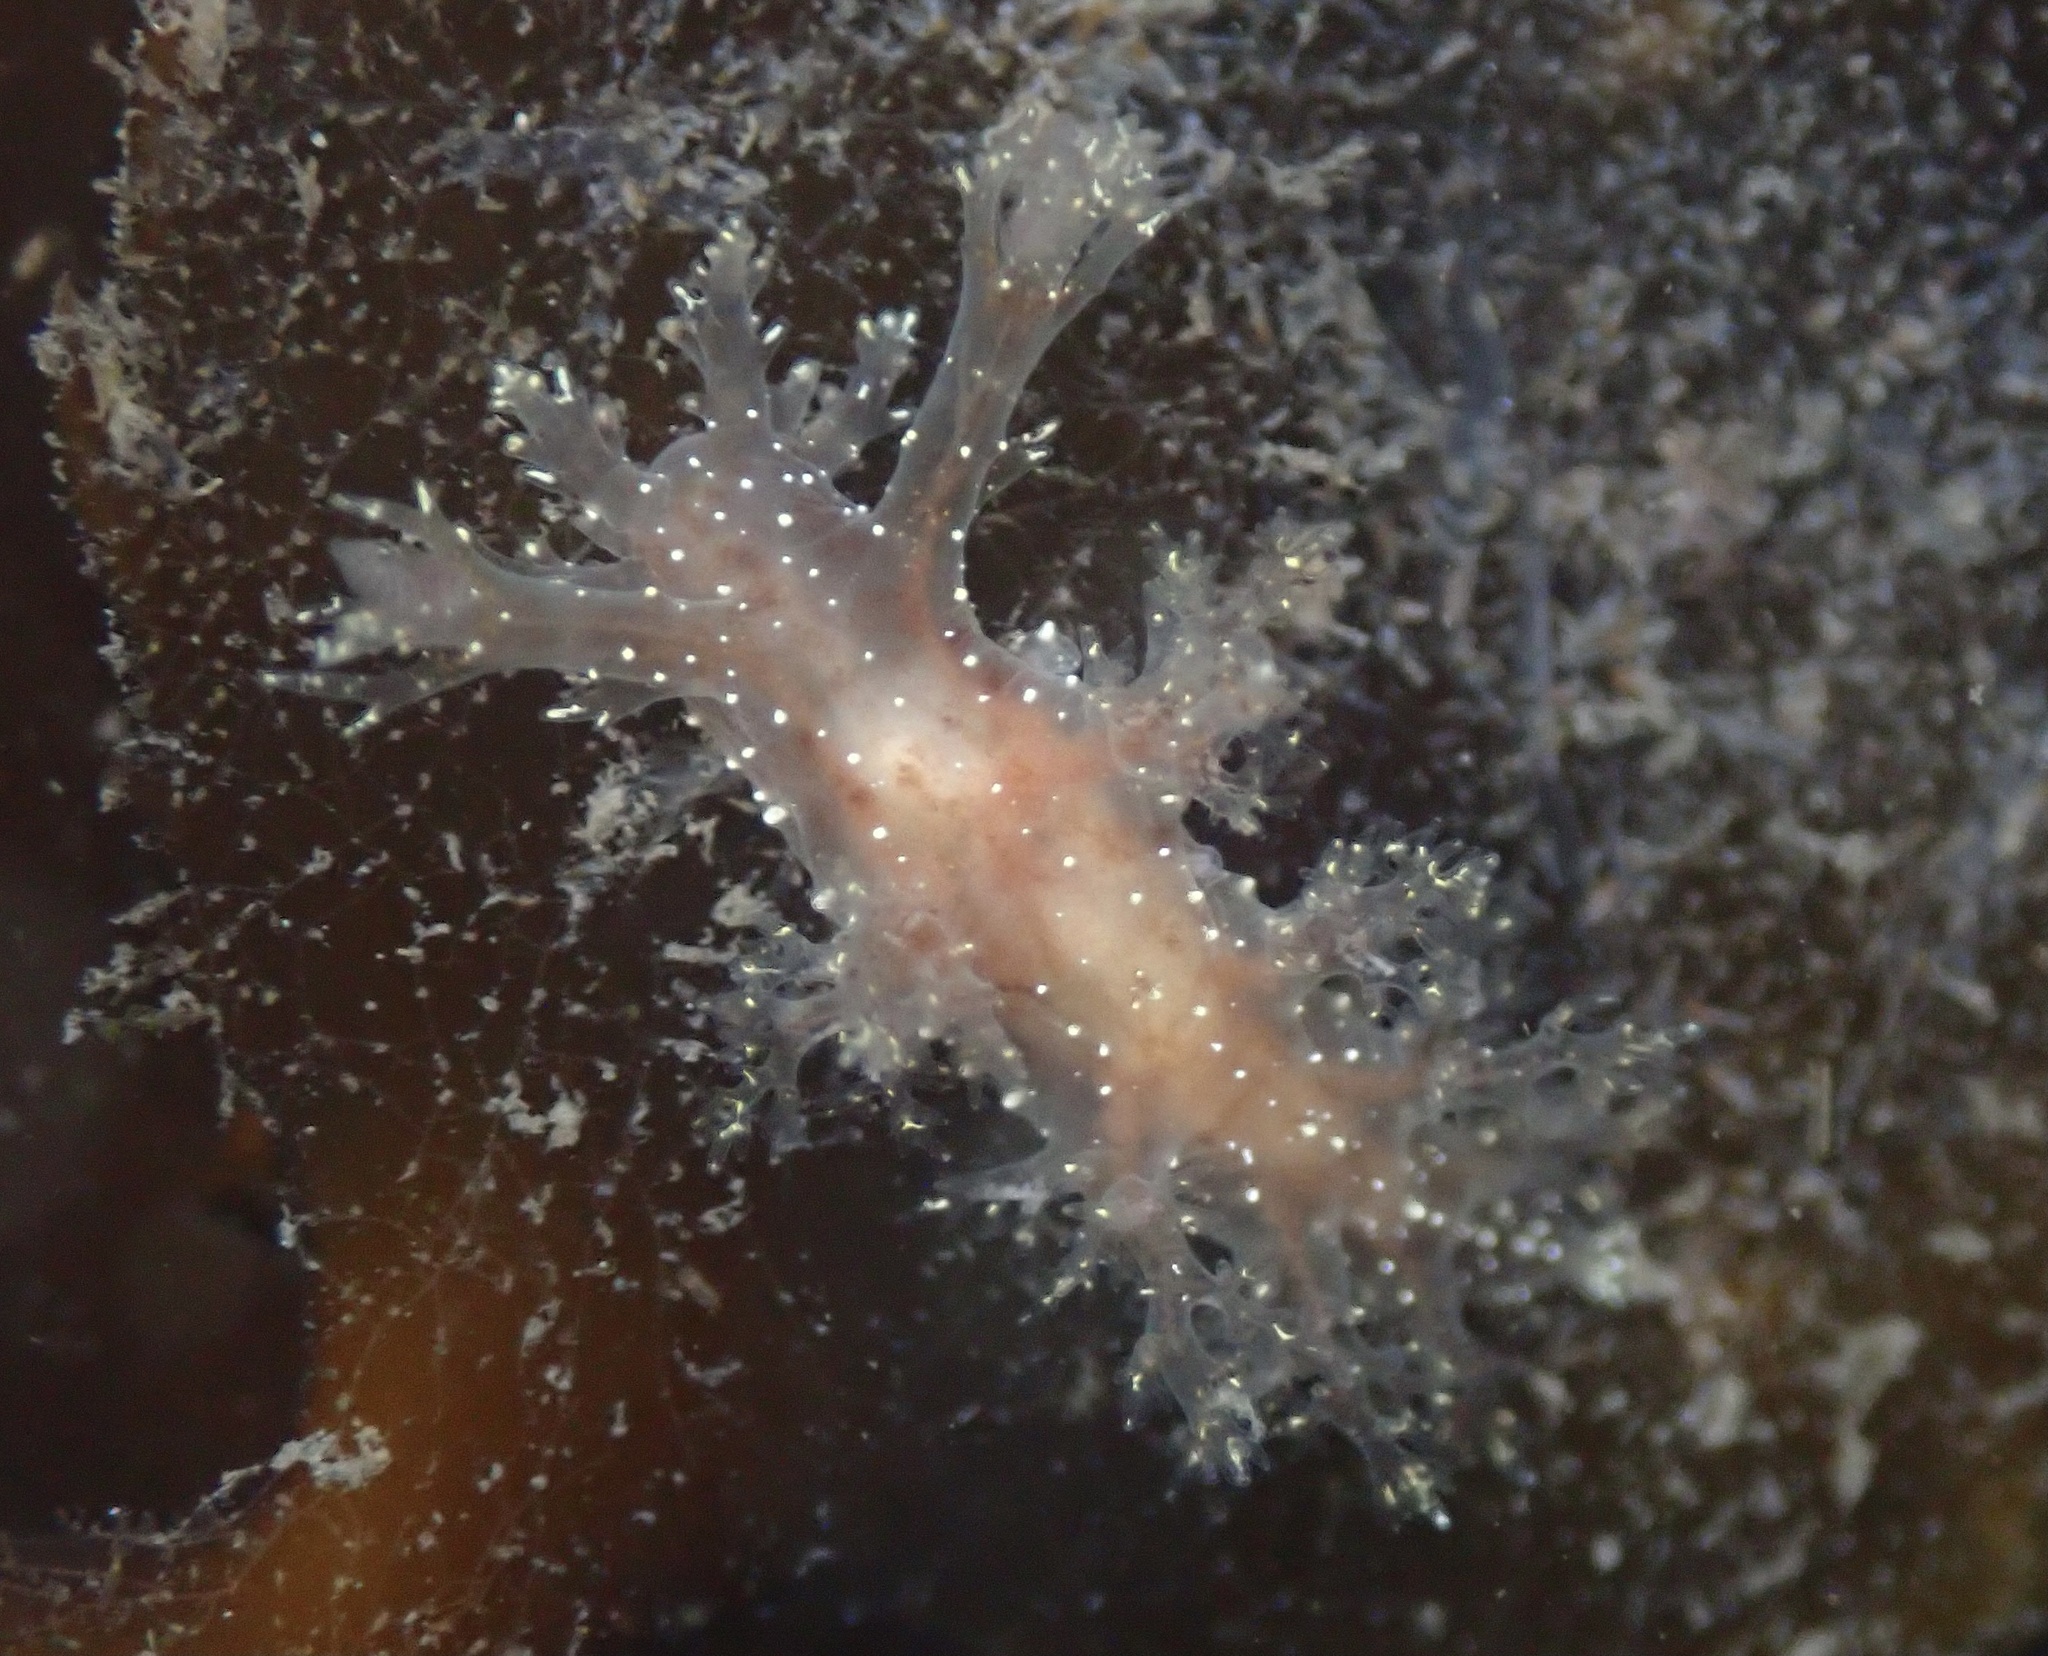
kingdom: Animalia
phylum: Mollusca
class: Gastropoda
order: Nudibranchia
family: Dendronotidae
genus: Dendronotus
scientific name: Dendronotus venustus
